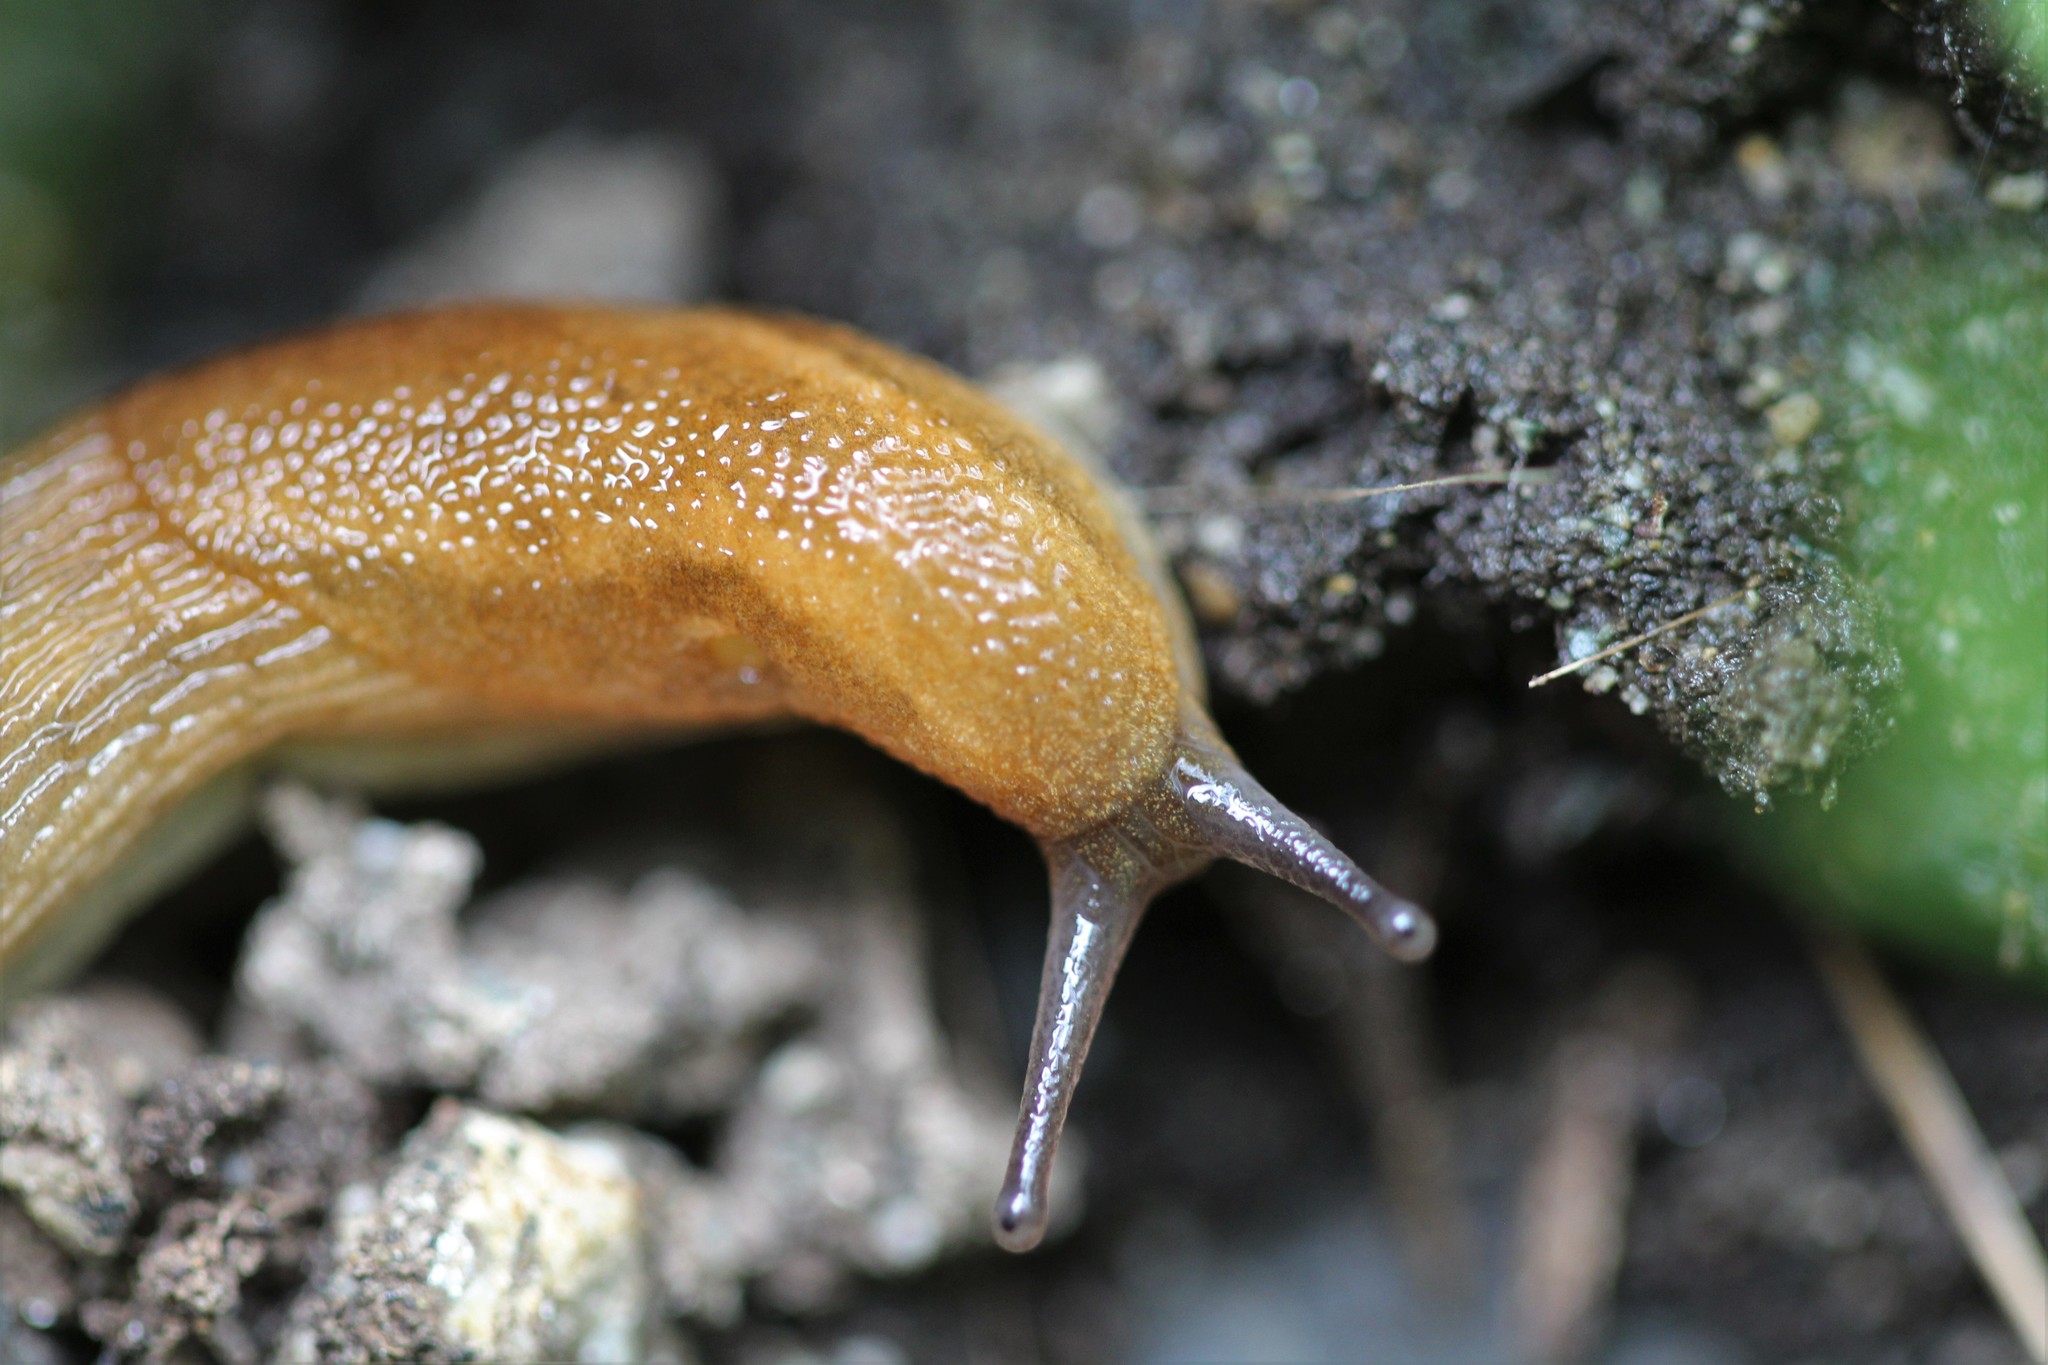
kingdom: Animalia
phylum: Mollusca
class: Gastropoda
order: Stylommatophora
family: Arionidae
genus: Arion
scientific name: Arion subfuscus
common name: Dusky arion
